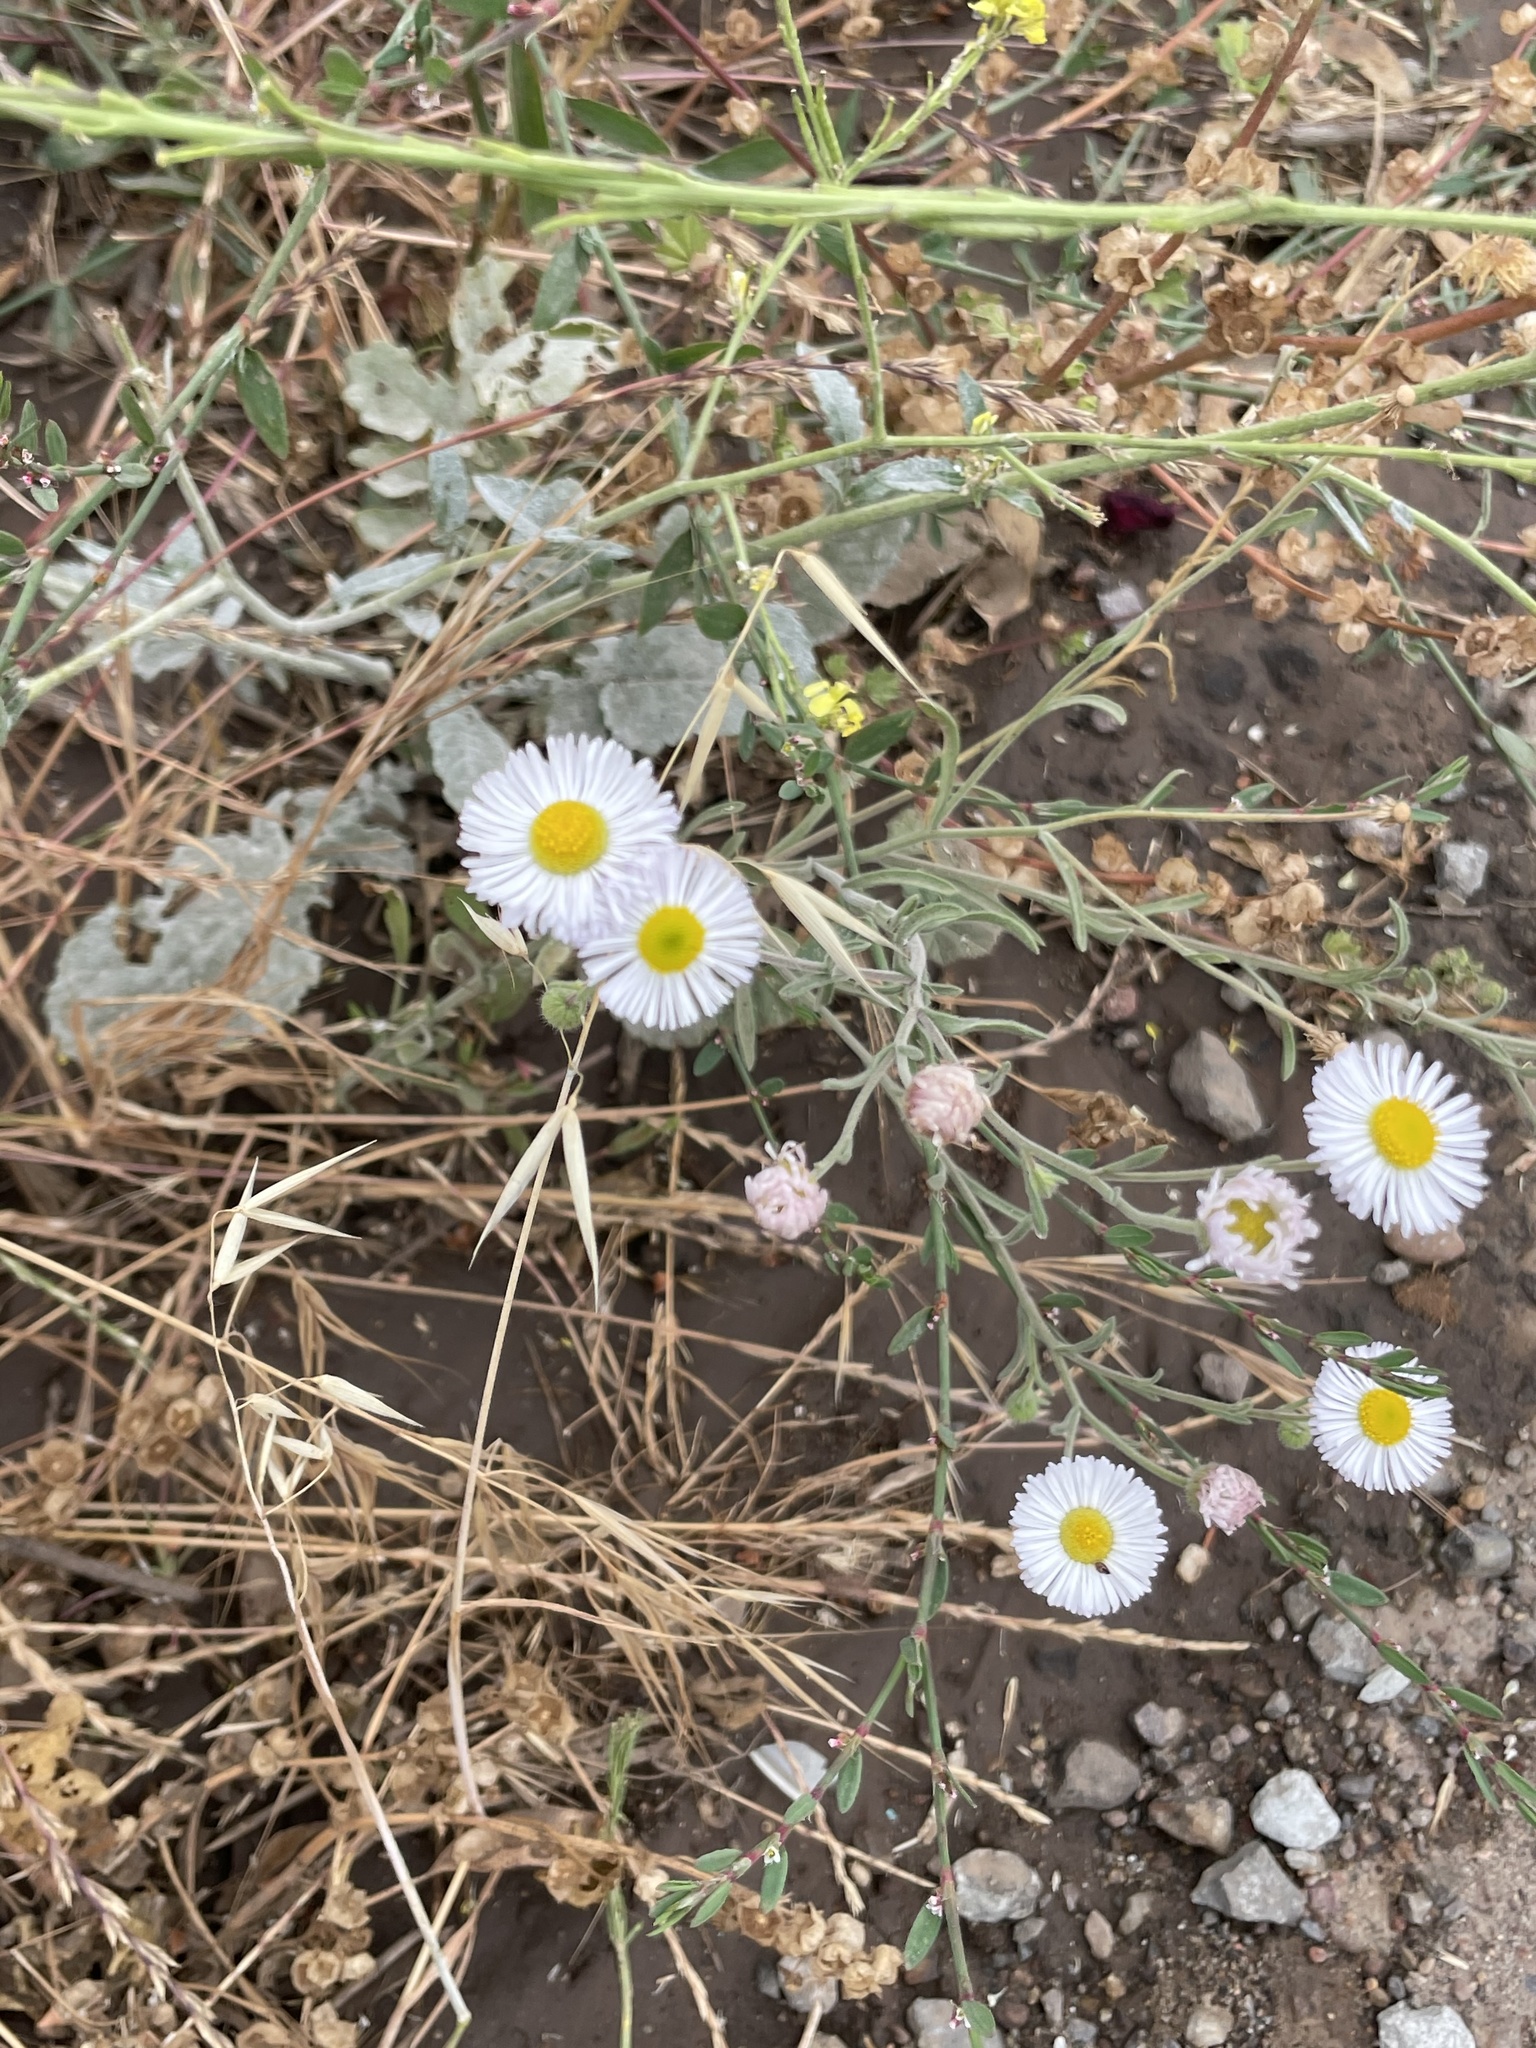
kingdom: Plantae
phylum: Tracheophyta
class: Magnoliopsida
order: Asterales
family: Asteraceae
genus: Erigeron
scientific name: Erigeron divergens
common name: Diffuse fleabane
